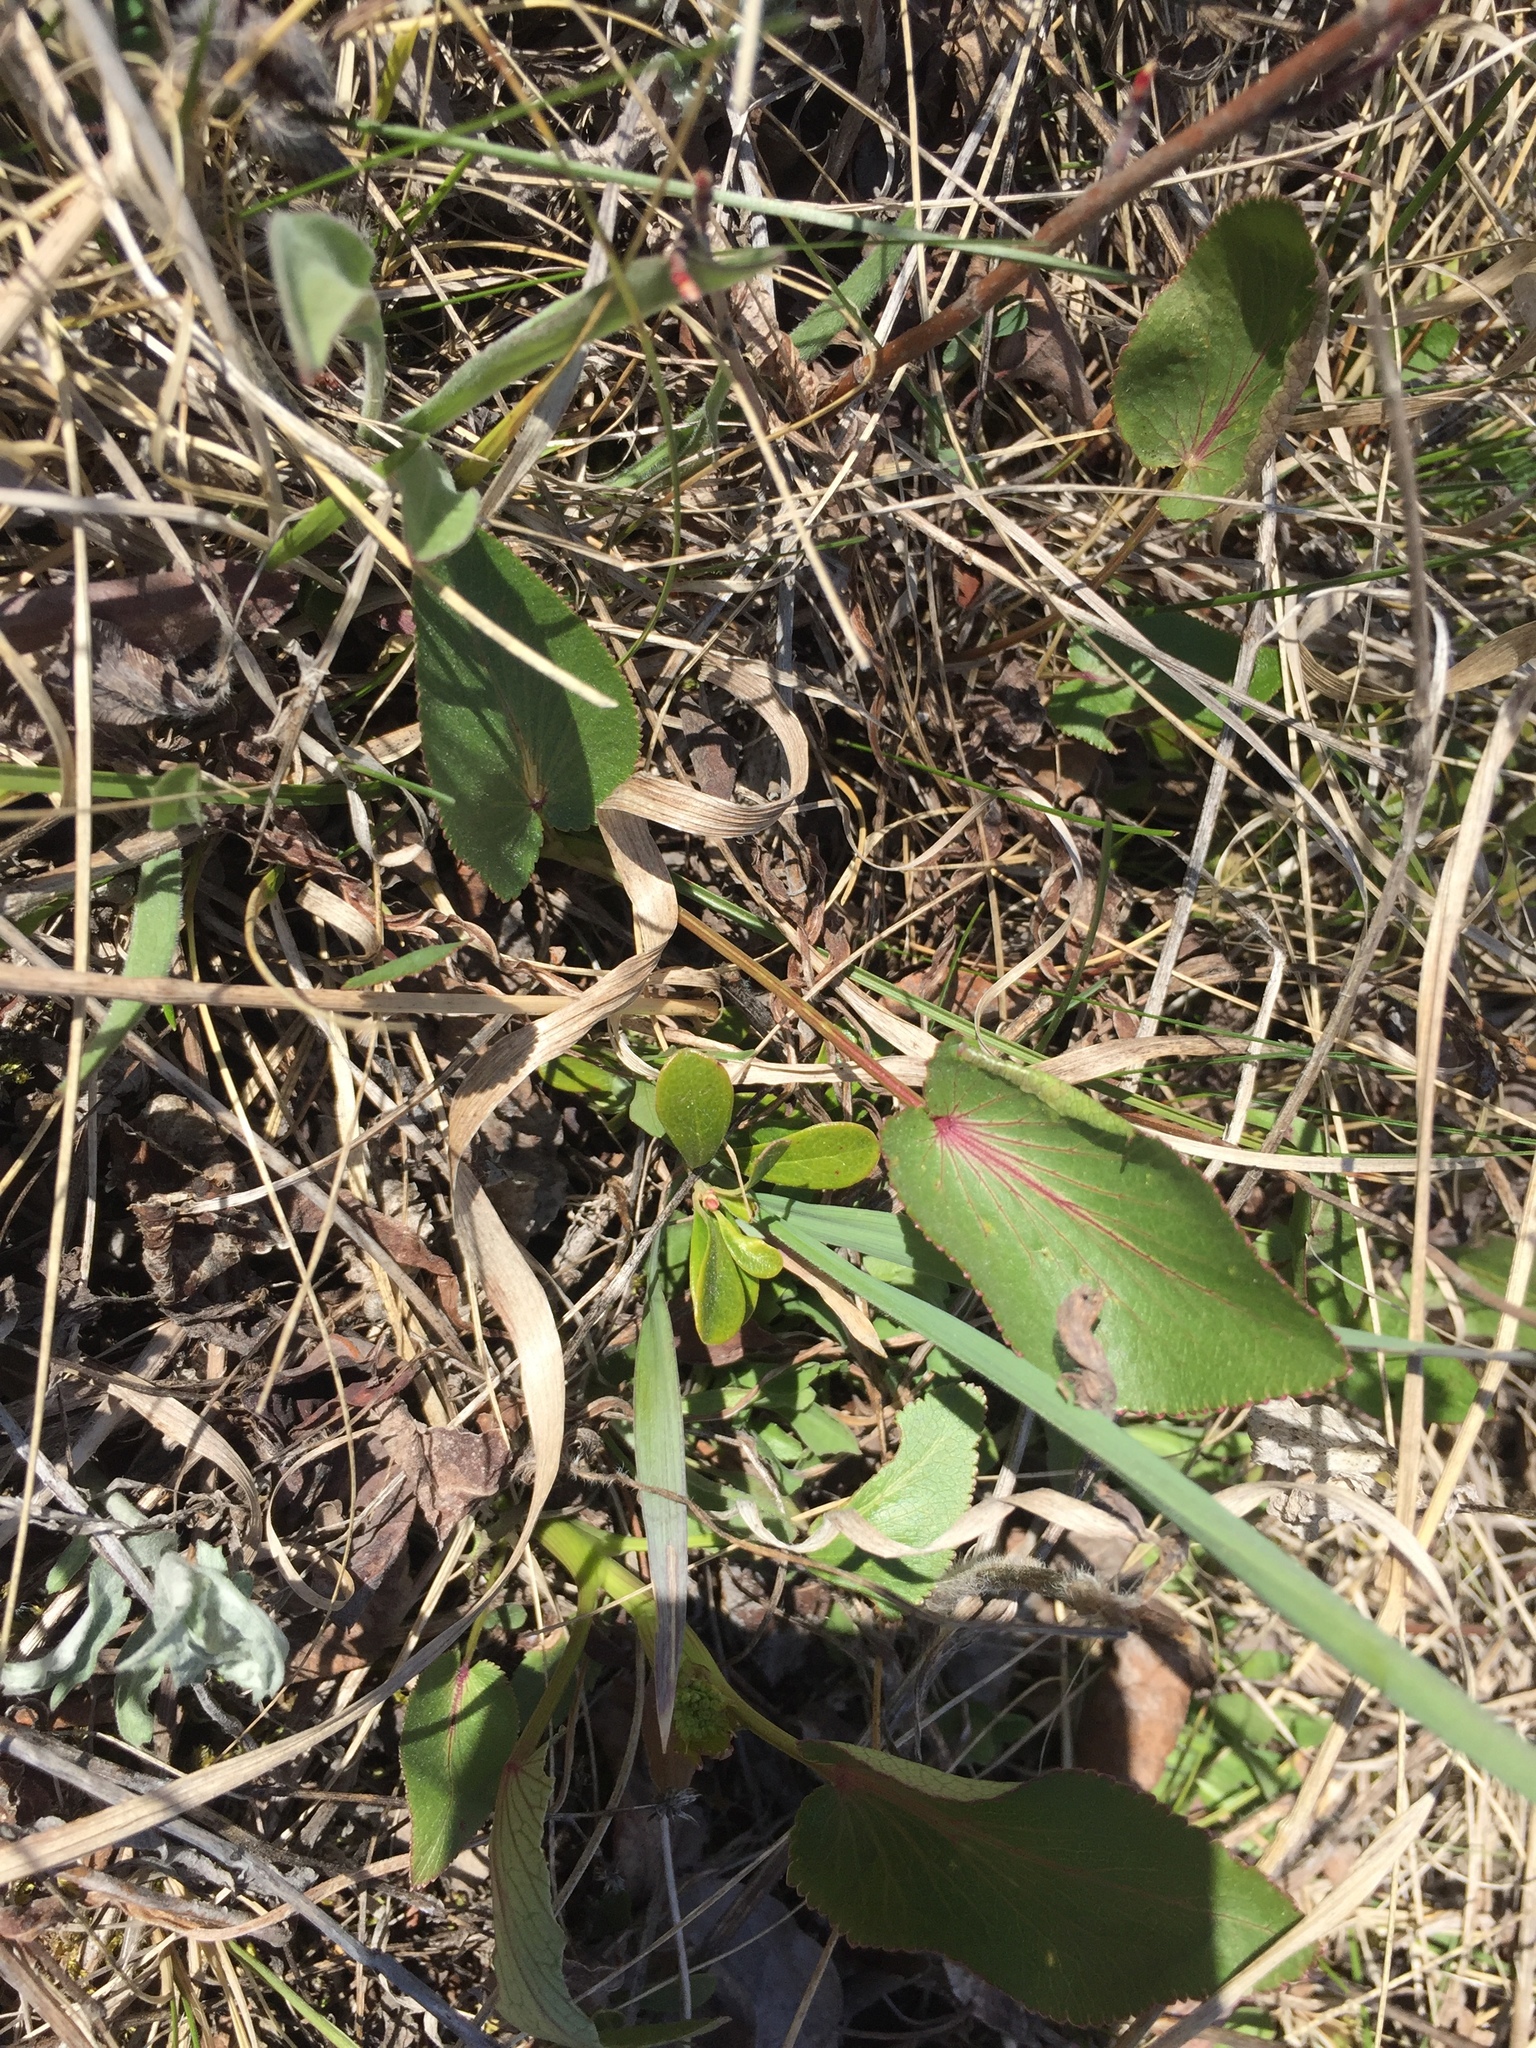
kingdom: Plantae
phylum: Tracheophyta
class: Magnoliopsida
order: Apiales
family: Apiaceae
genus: Zizia
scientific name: Zizia aptera
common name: Heart-leaved alexanders
